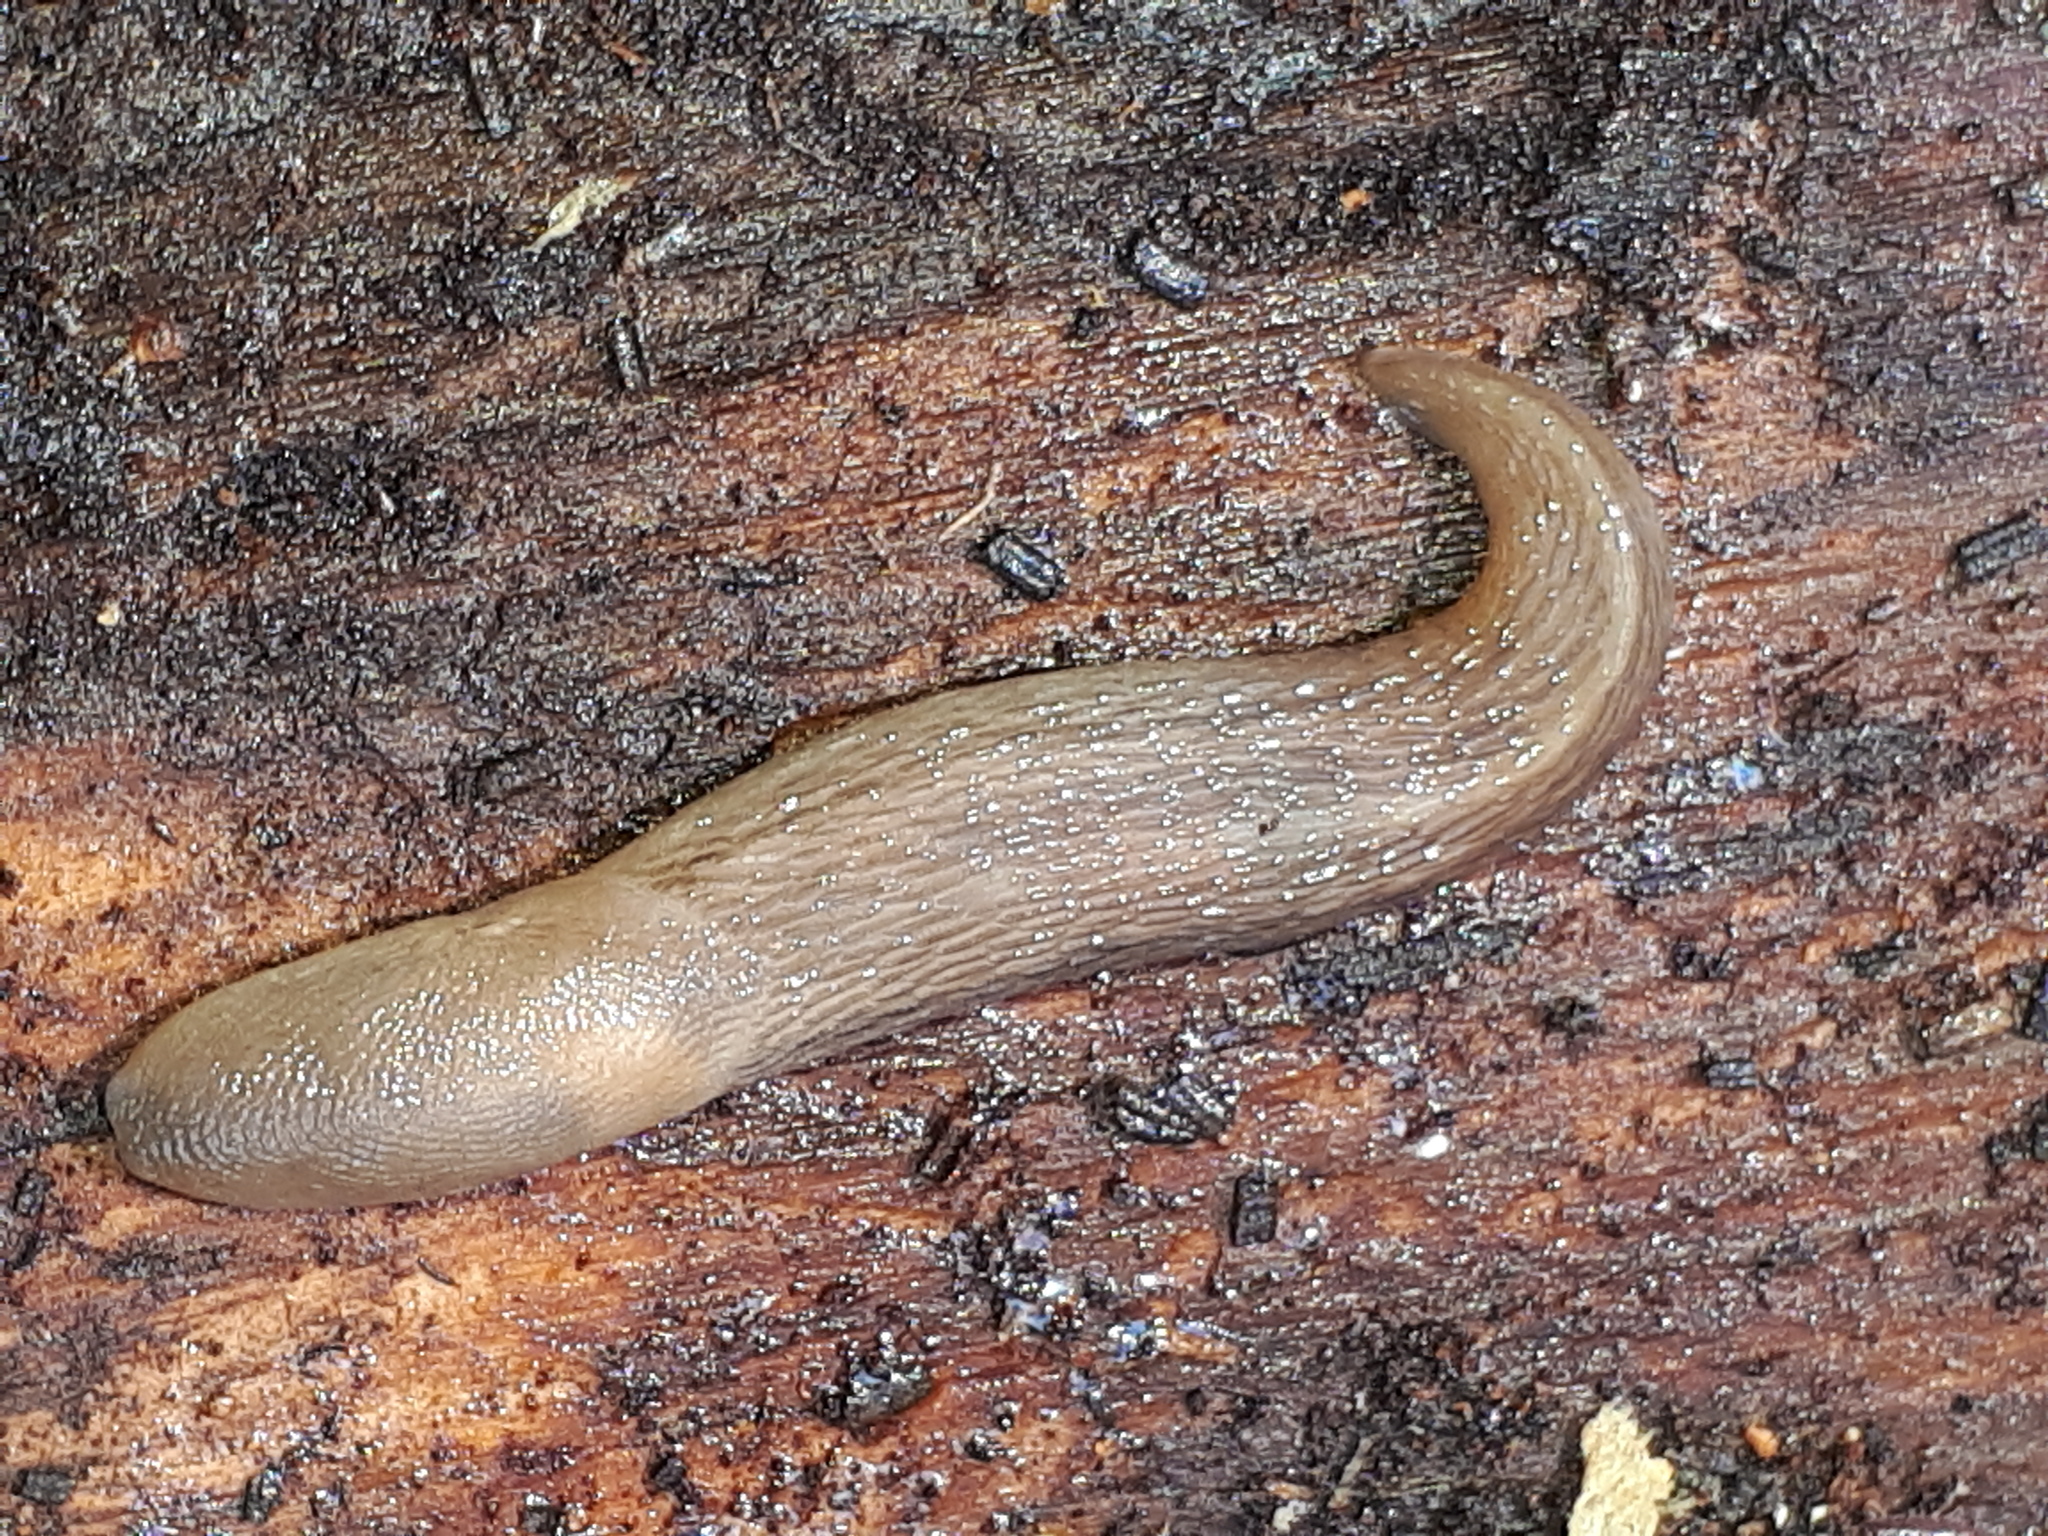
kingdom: Animalia
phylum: Mollusca
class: Gastropoda
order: Stylommatophora
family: Limacidae
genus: Limax
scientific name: Limax cinereoniger
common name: Ash-black slug
